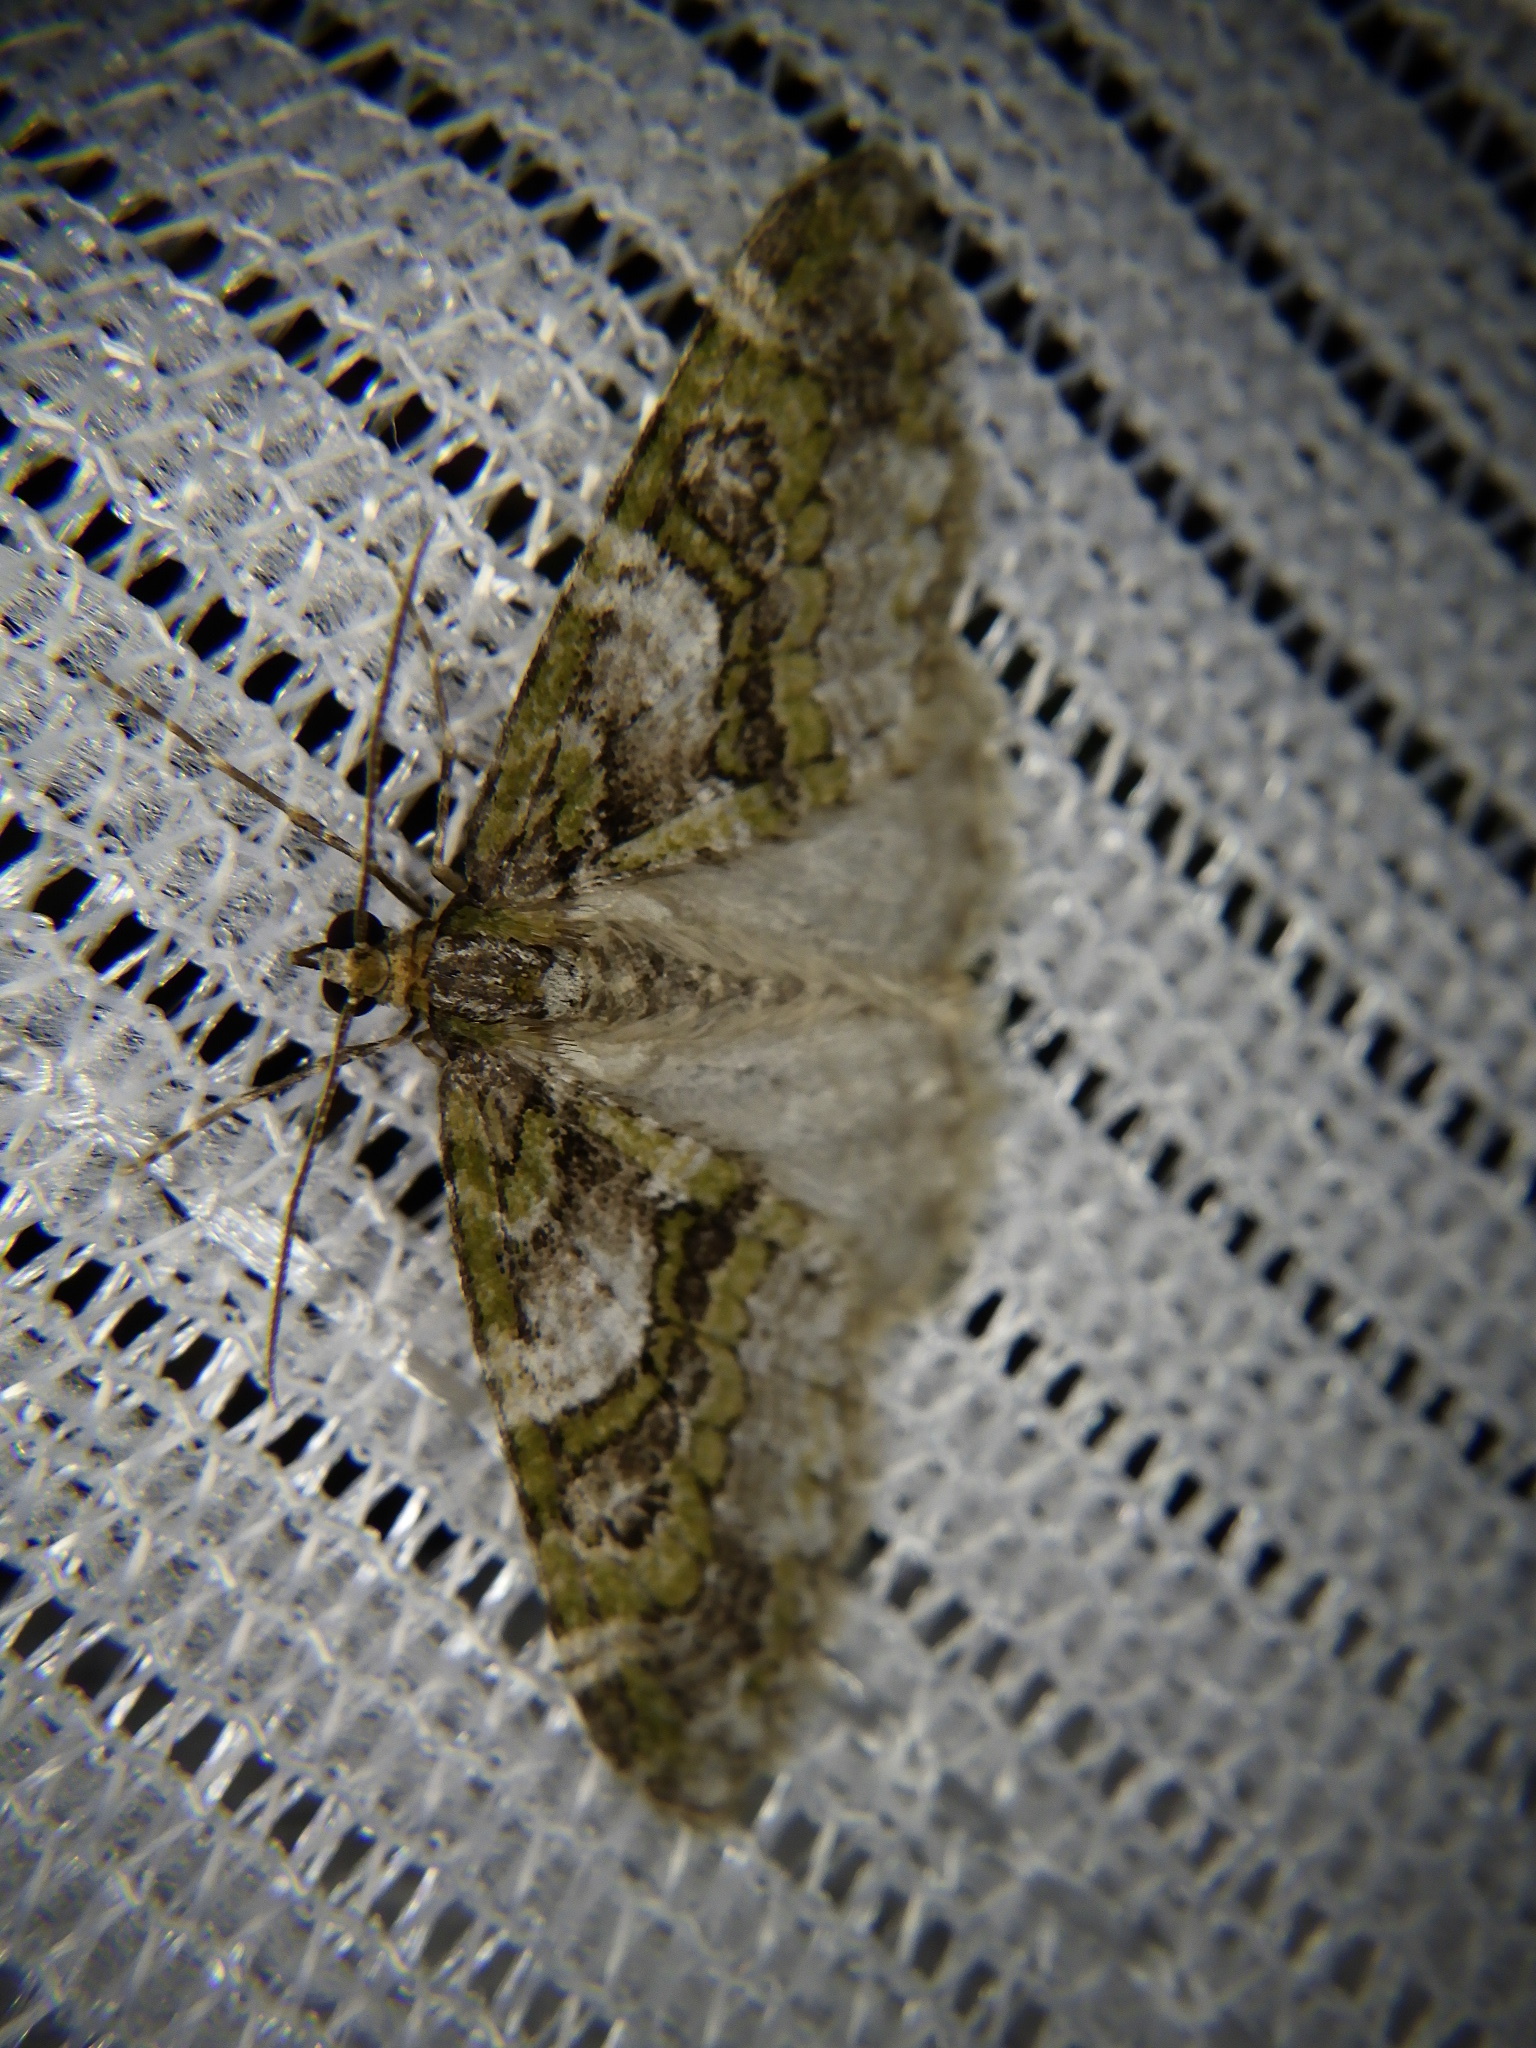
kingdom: Animalia
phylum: Arthropoda
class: Insecta
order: Lepidoptera
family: Geometridae
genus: Esakiopteryx
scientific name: Esakiopteryx volitans
